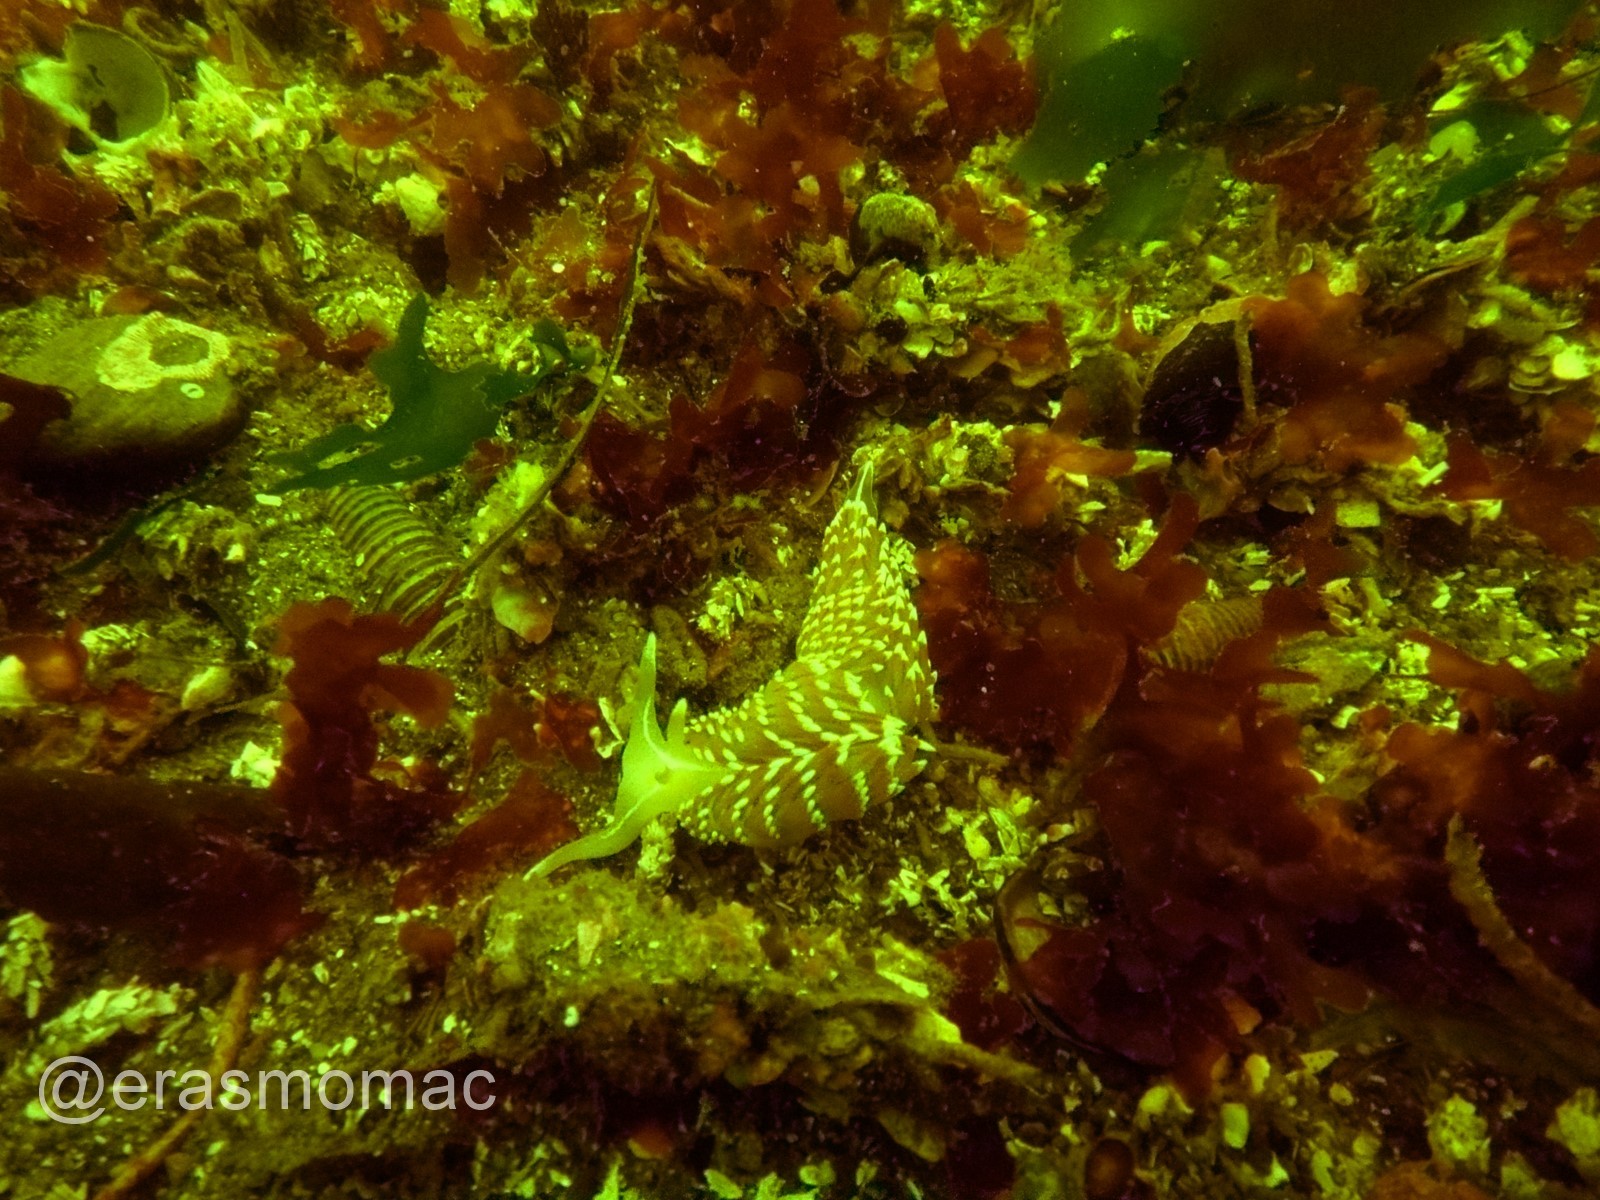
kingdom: Animalia
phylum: Mollusca
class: Gastropoda
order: Nudibranchia
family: Facelinidae
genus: Phidiana
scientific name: Phidiana lottini
